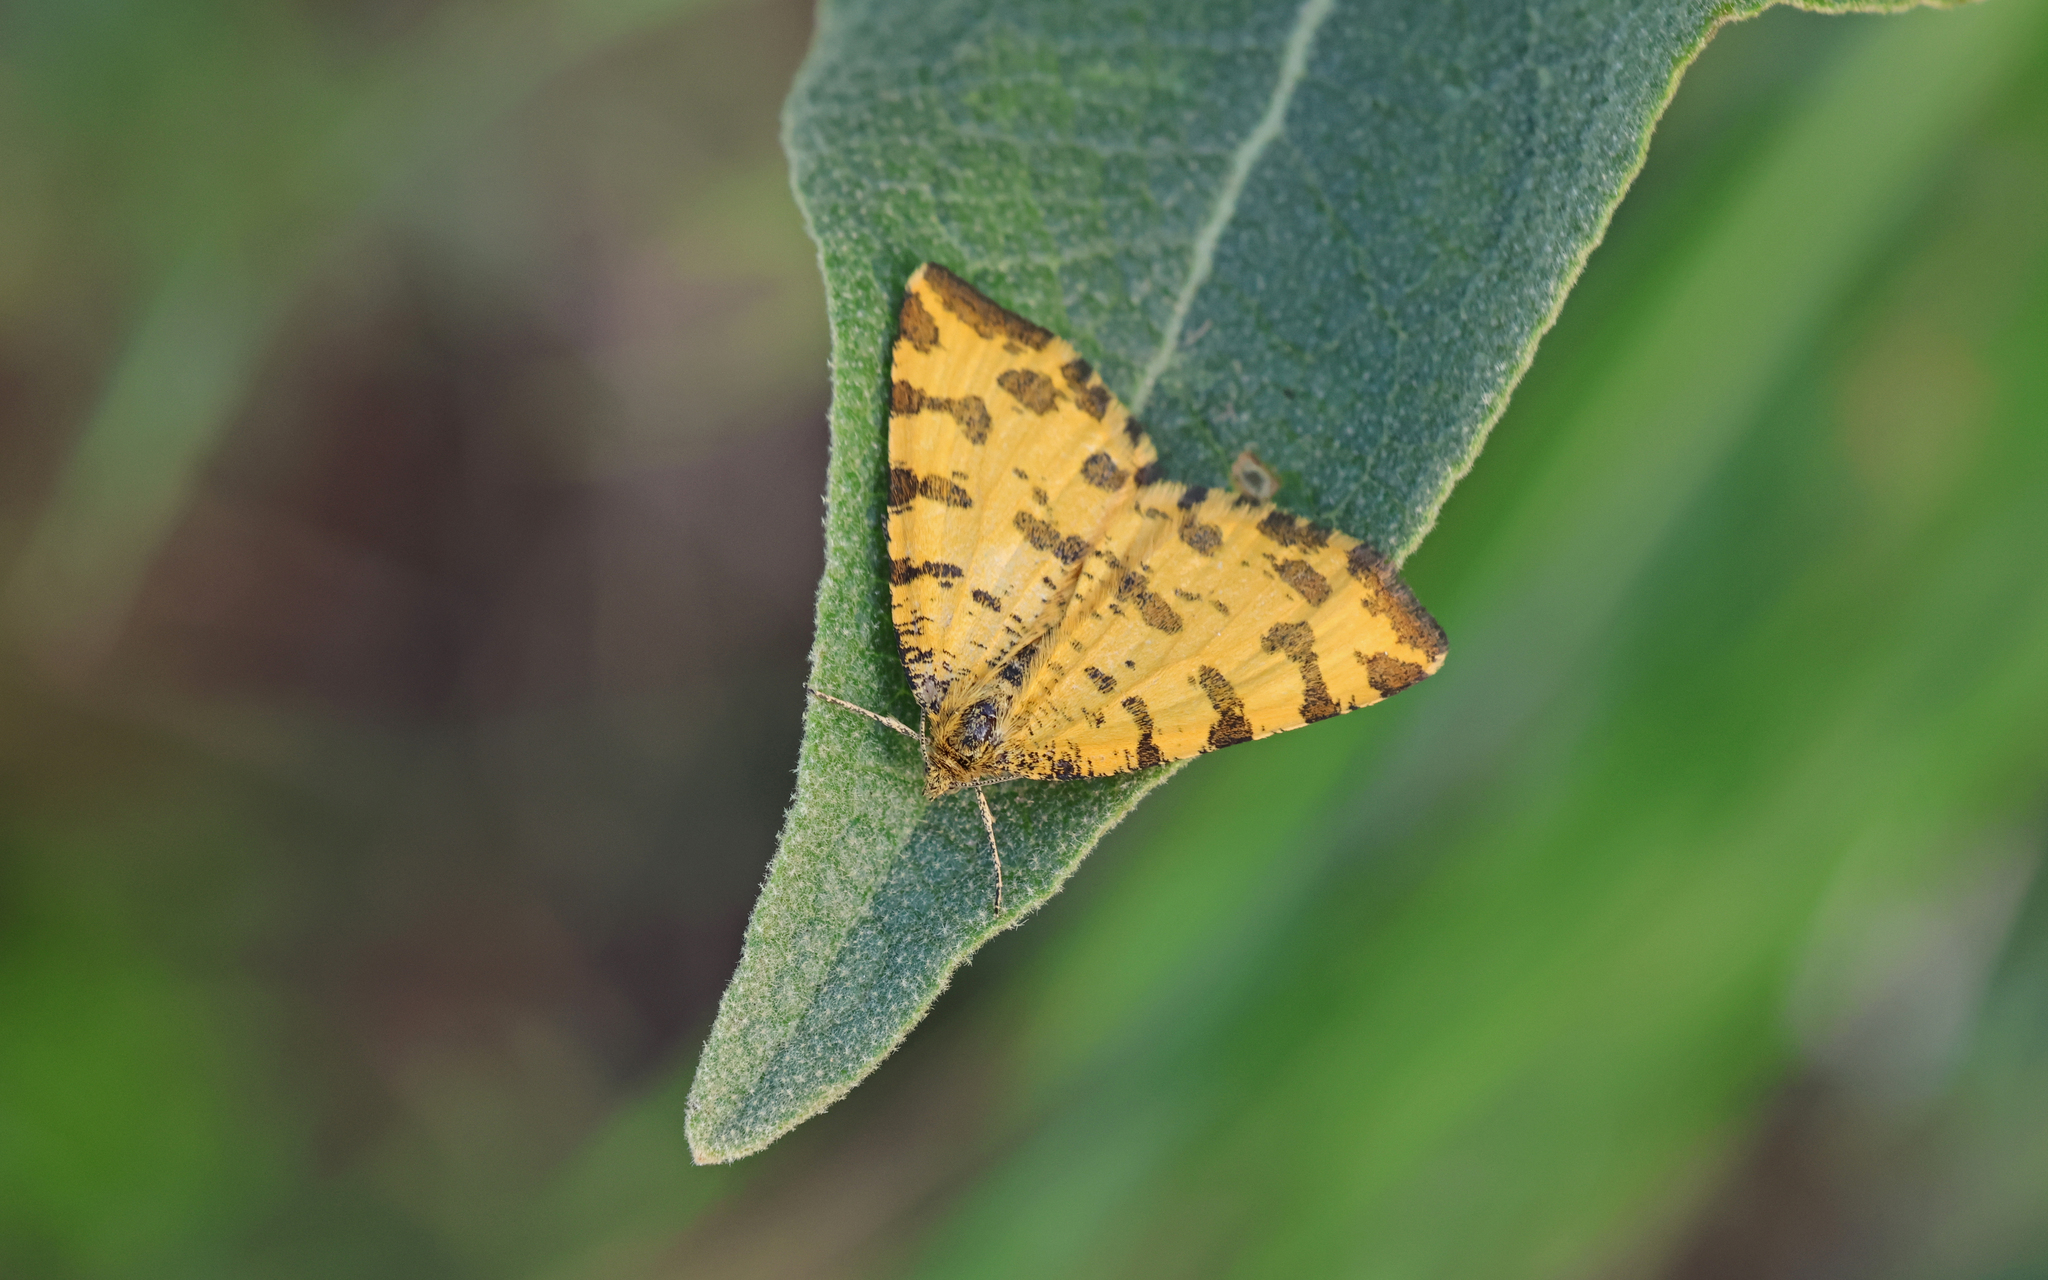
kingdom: Animalia
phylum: Arthropoda
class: Insecta
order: Lepidoptera
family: Geometridae
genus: Pseudopanthera
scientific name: Pseudopanthera macularia
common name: Speckled yellow
